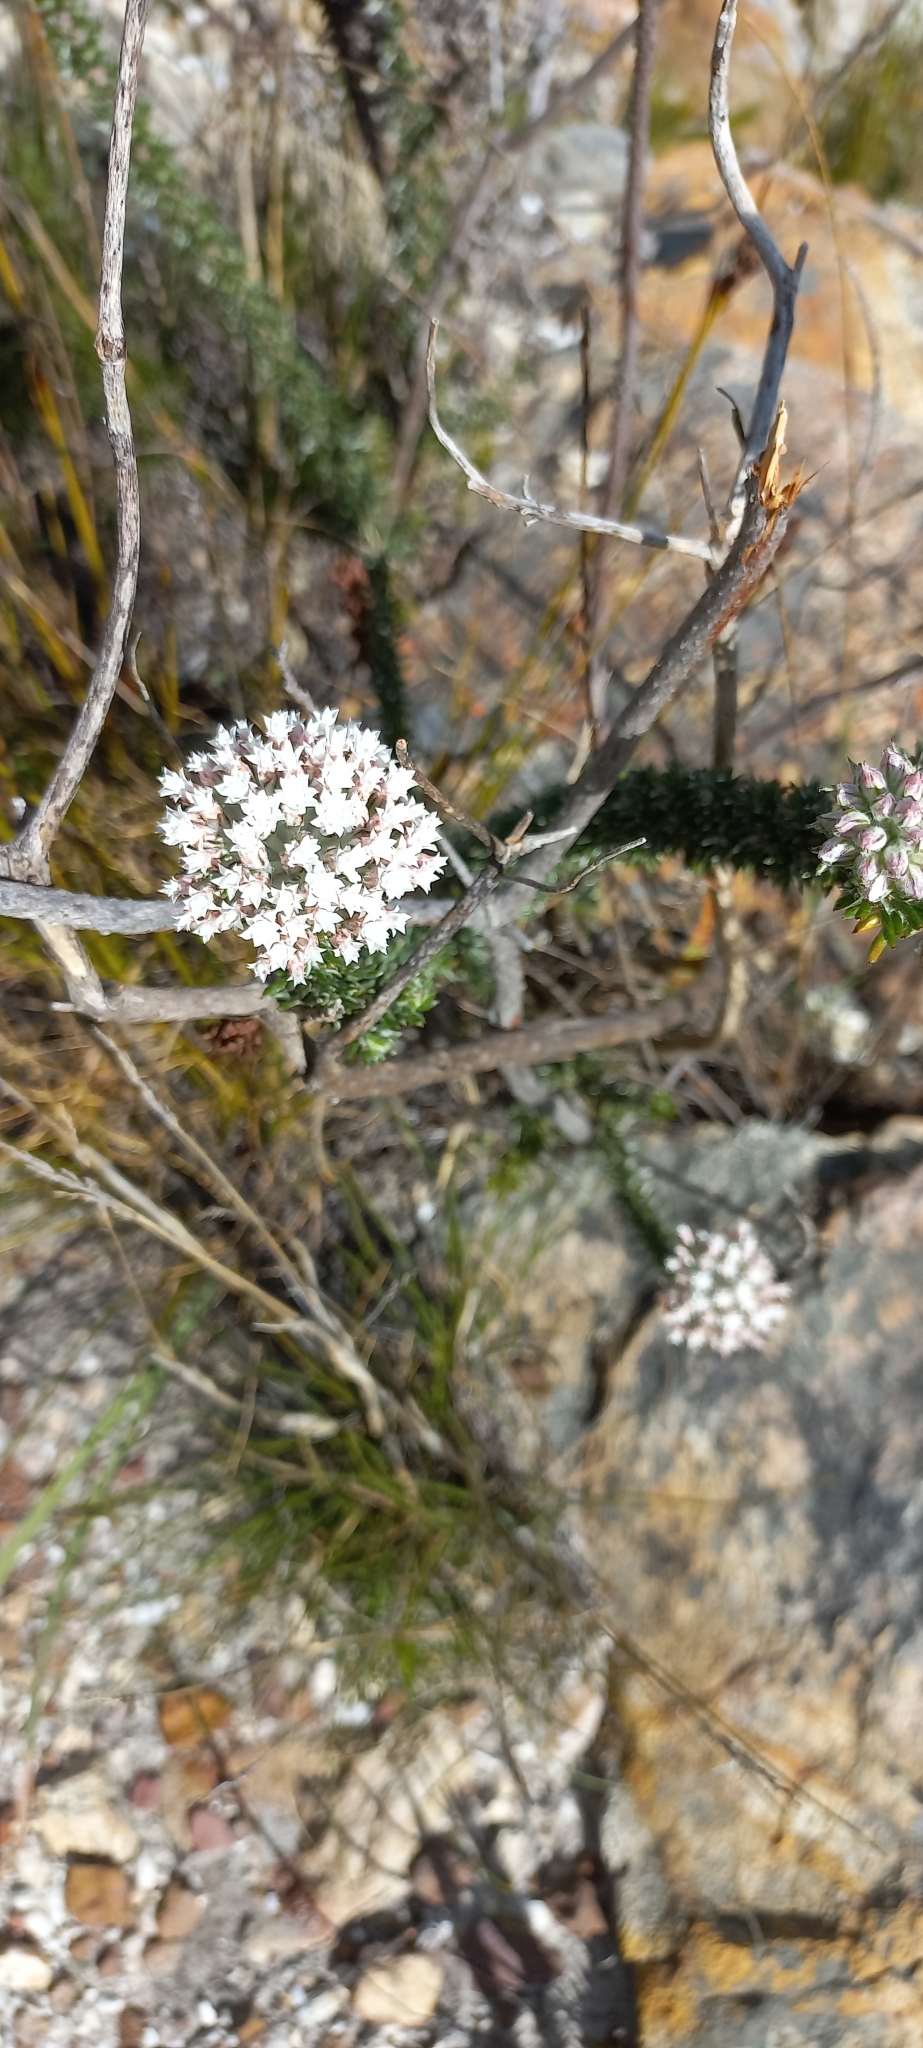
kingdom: Plantae
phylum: Tracheophyta
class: Magnoliopsida
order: Asterales
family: Asteraceae
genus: Metalasia
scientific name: Metalasia lichtensteinii
